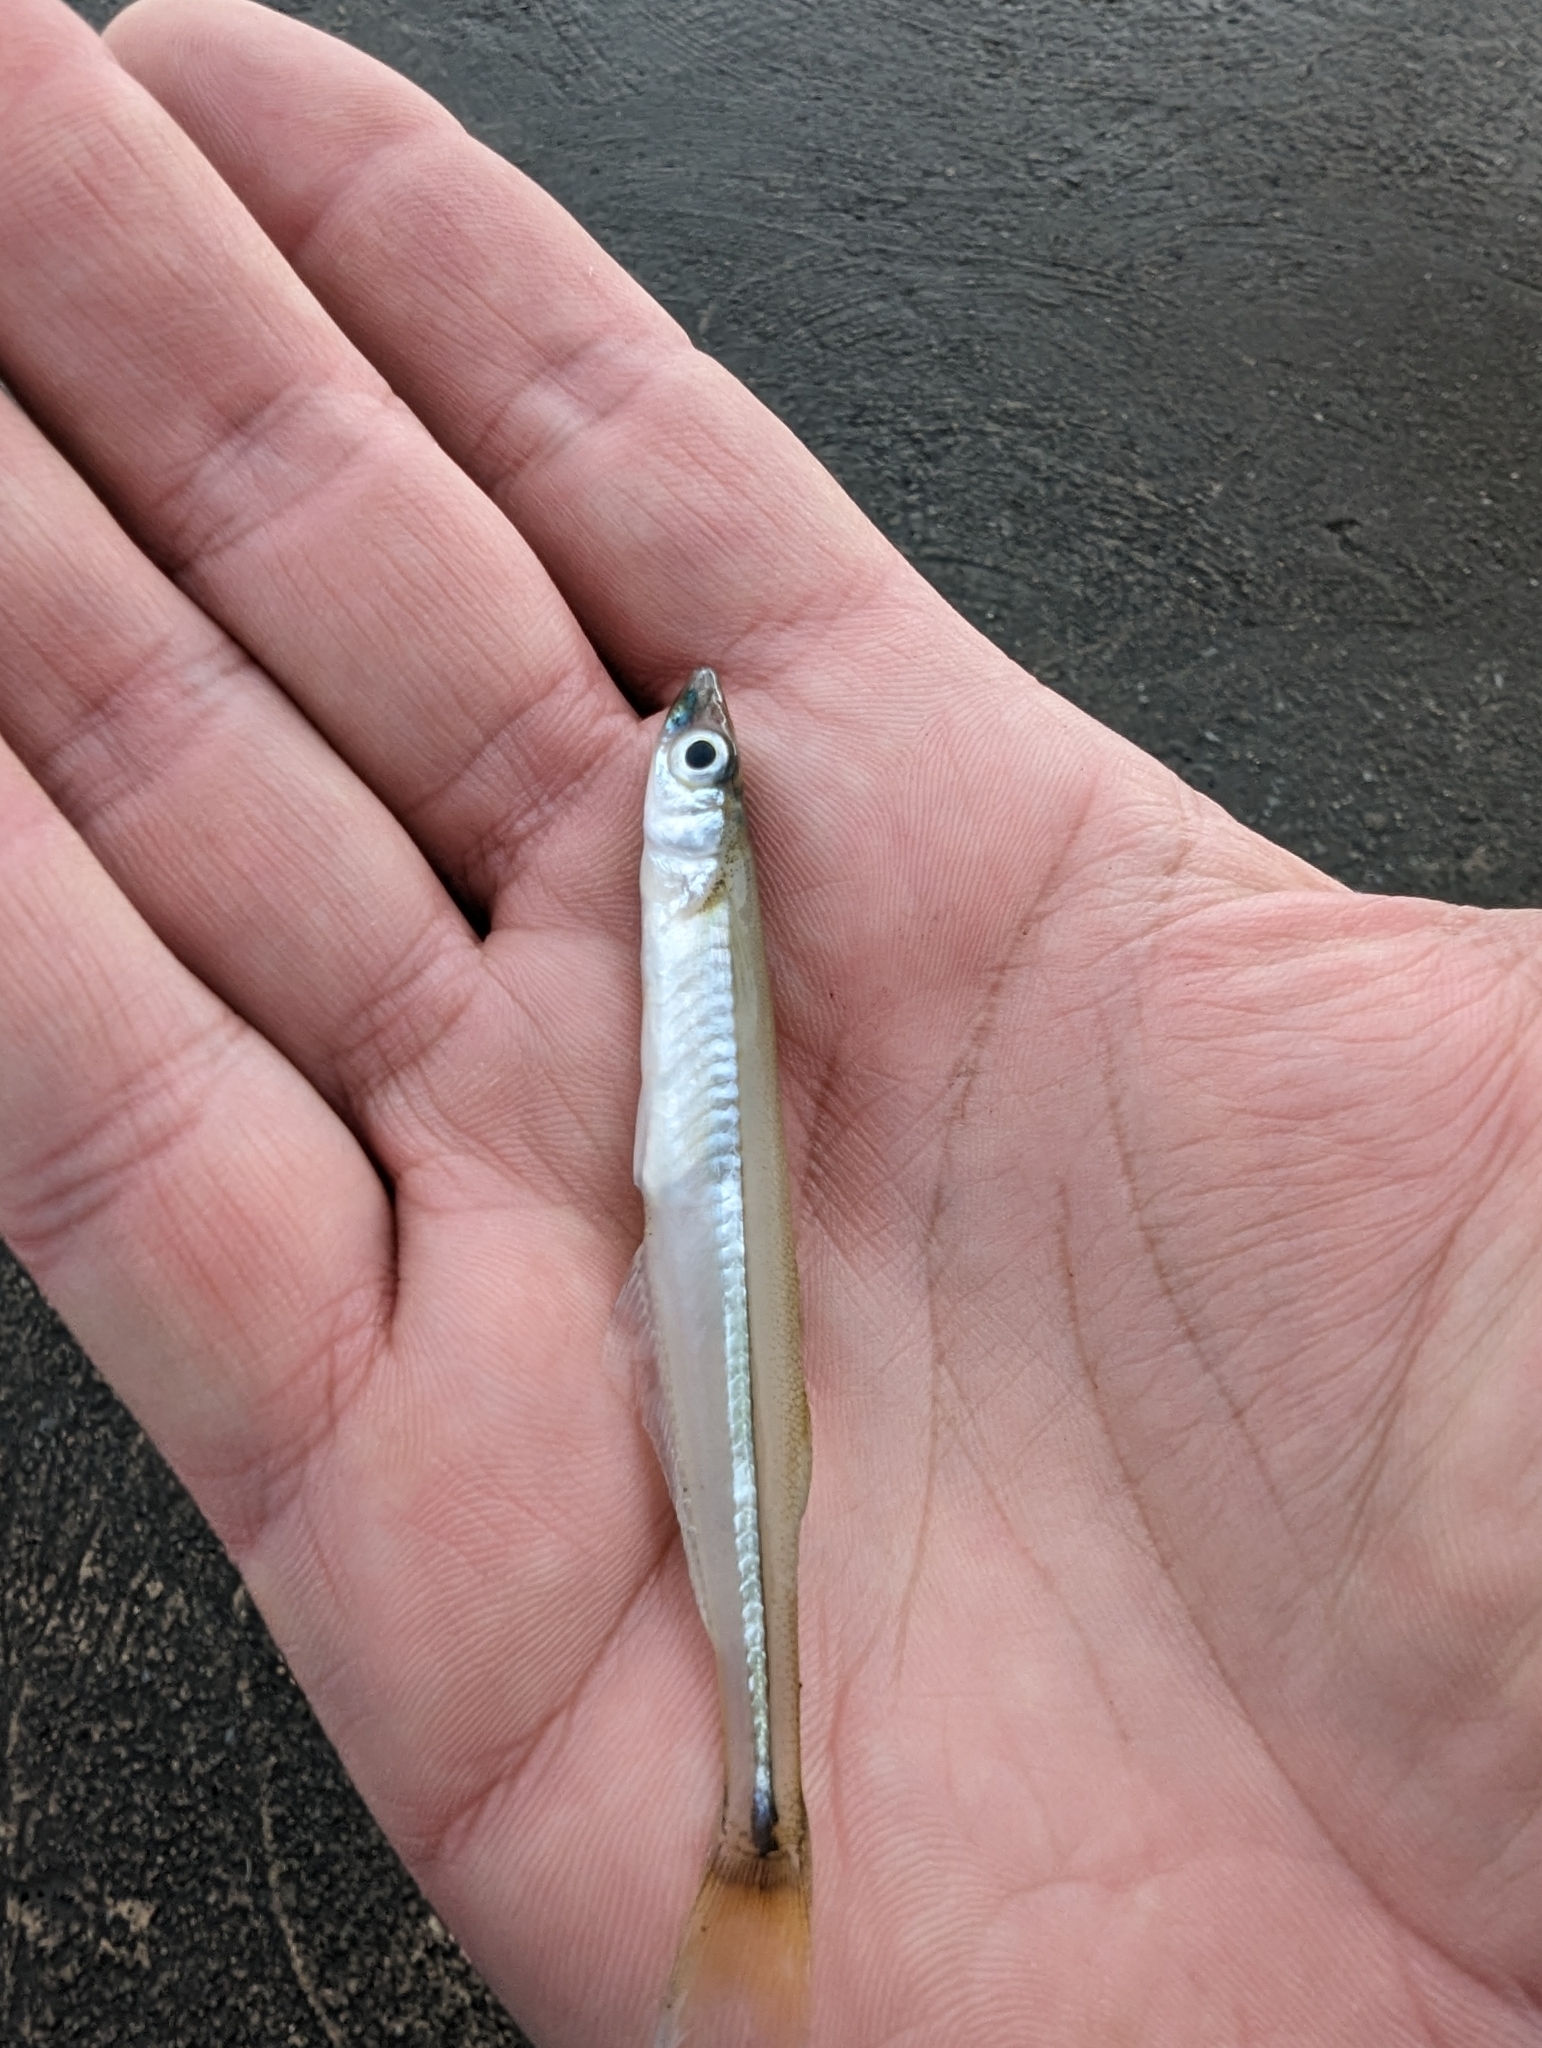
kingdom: Animalia
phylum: Chordata
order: Atheriniformes
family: Atherinopsidae
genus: Labidesthes
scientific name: Labidesthes sicculus
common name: Brook silverside
